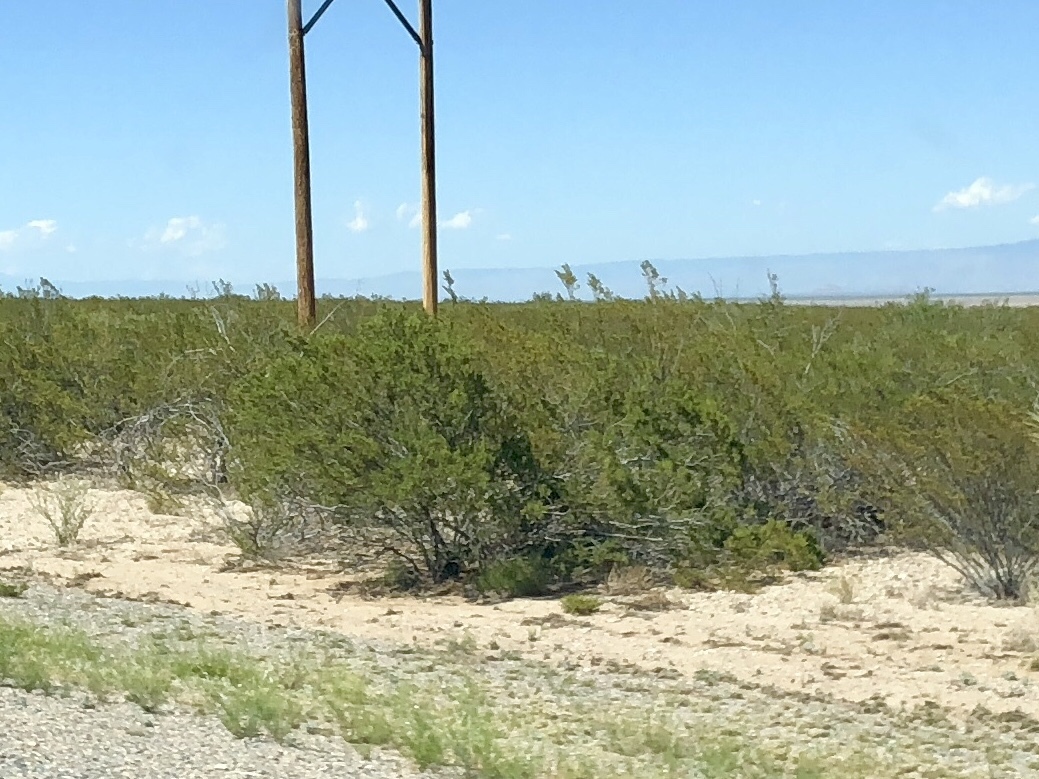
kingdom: Plantae
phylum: Tracheophyta
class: Magnoliopsida
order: Zygophyllales
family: Zygophyllaceae
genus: Larrea
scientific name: Larrea tridentata
